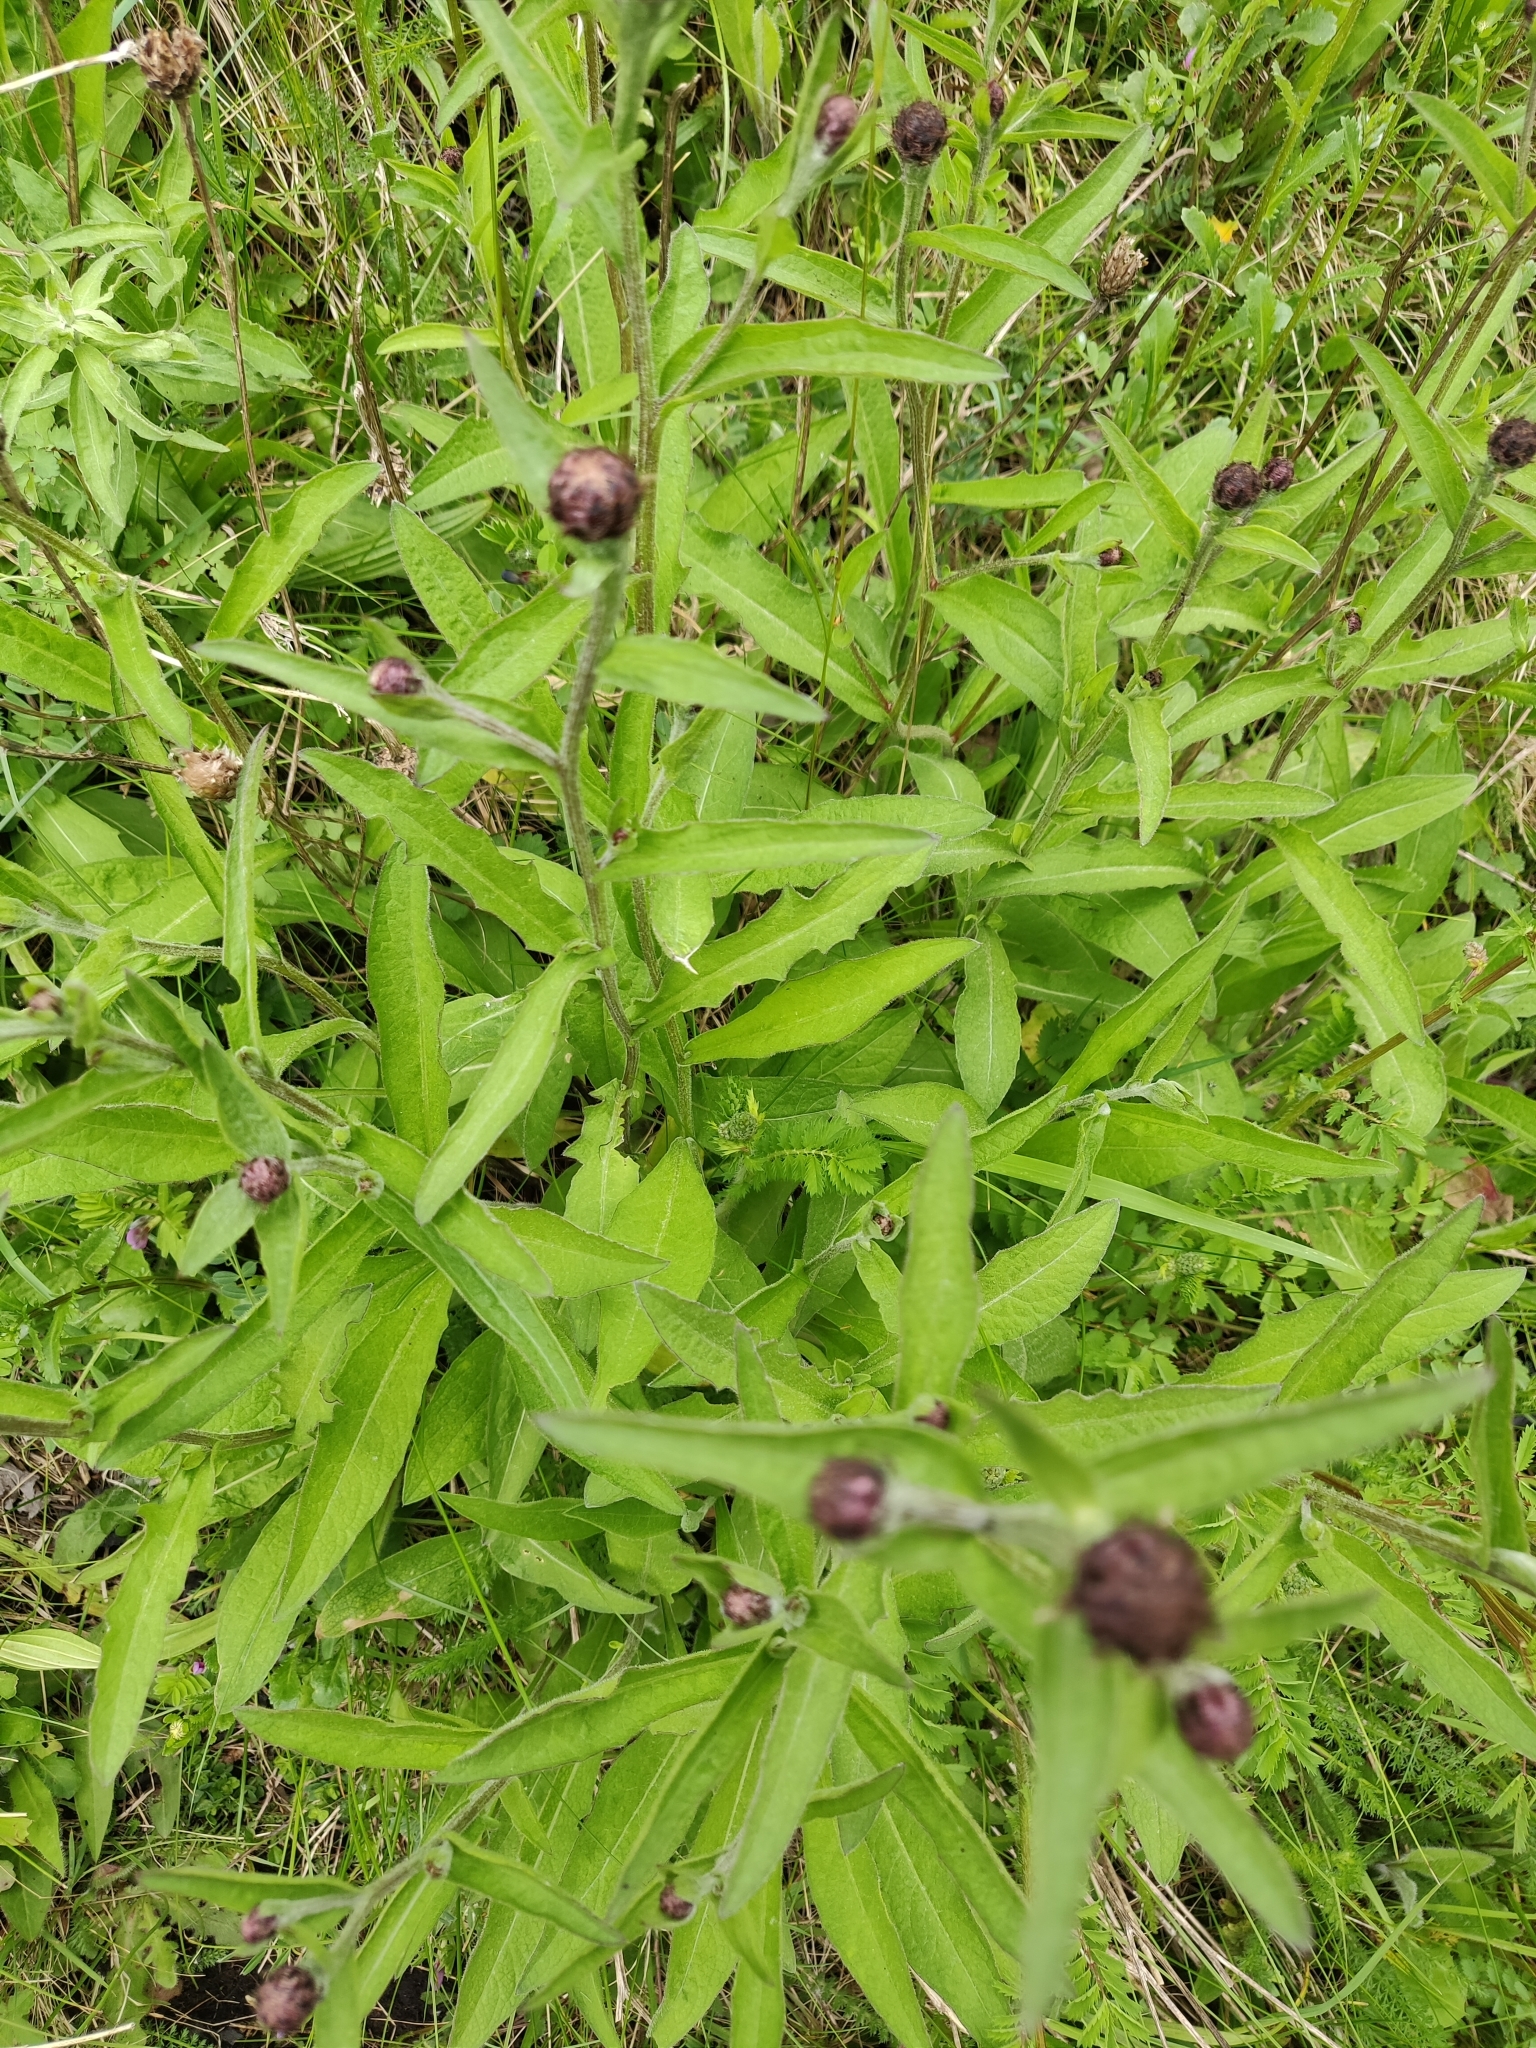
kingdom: Plantae
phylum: Tracheophyta
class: Magnoliopsida
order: Asterales
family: Asteraceae
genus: Centaurea
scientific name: Centaurea nigra
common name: Lesser knapweed
